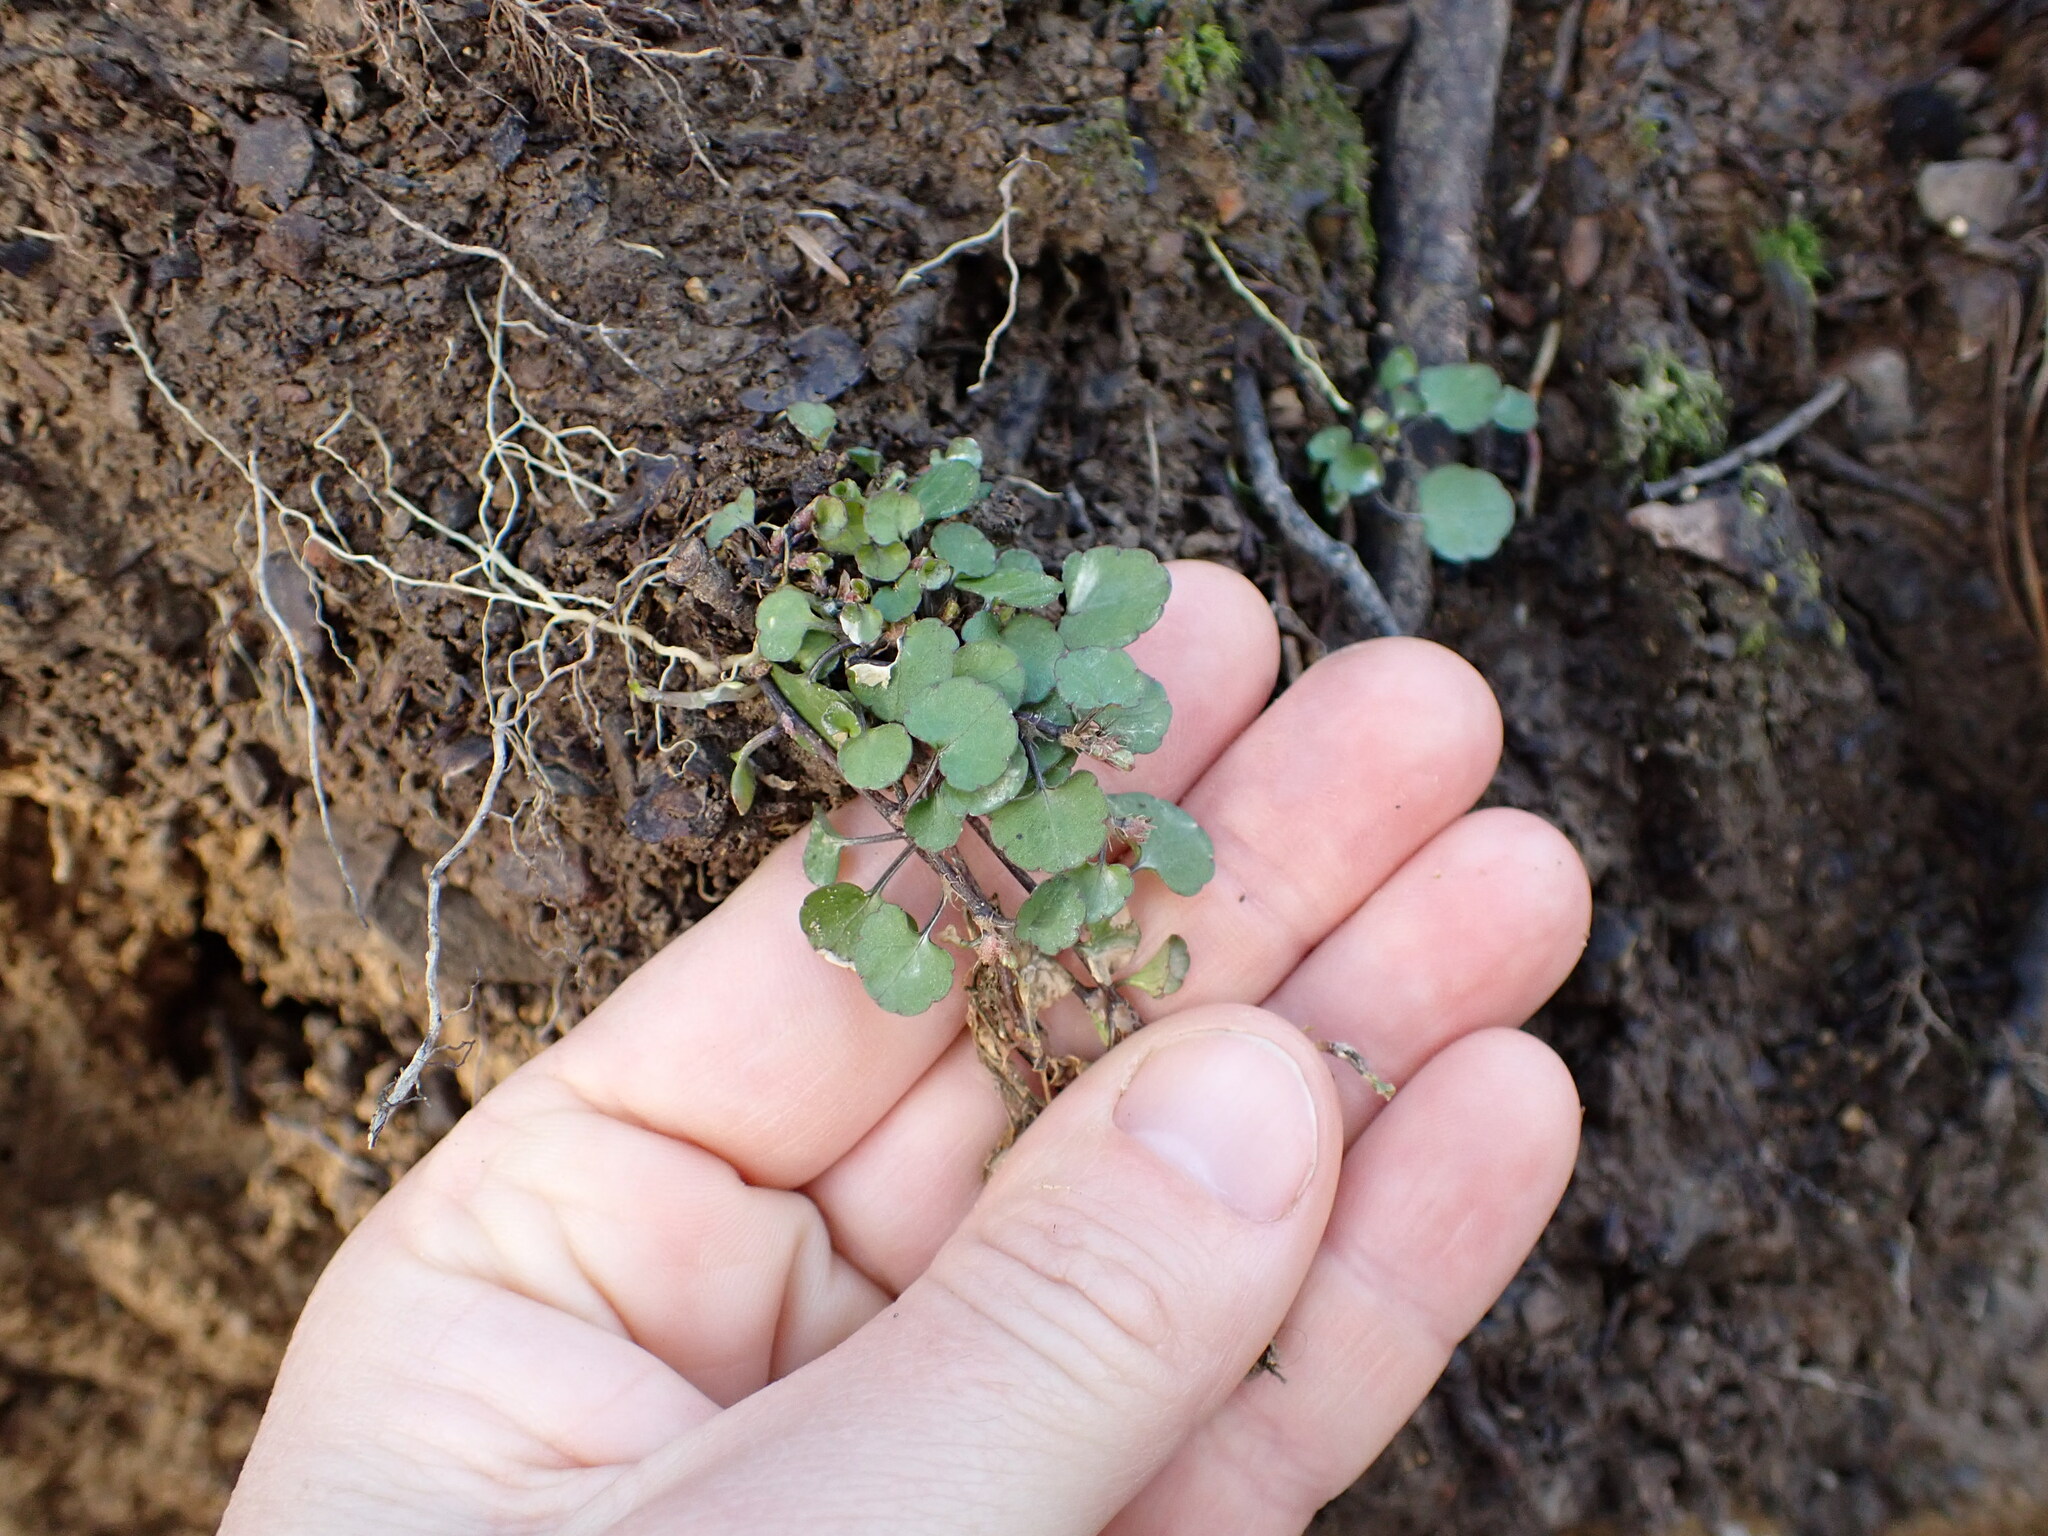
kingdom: Plantae
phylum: Tracheophyta
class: Magnoliopsida
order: Malpighiales
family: Violaceae
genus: Viola
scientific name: Viola filicaulis
